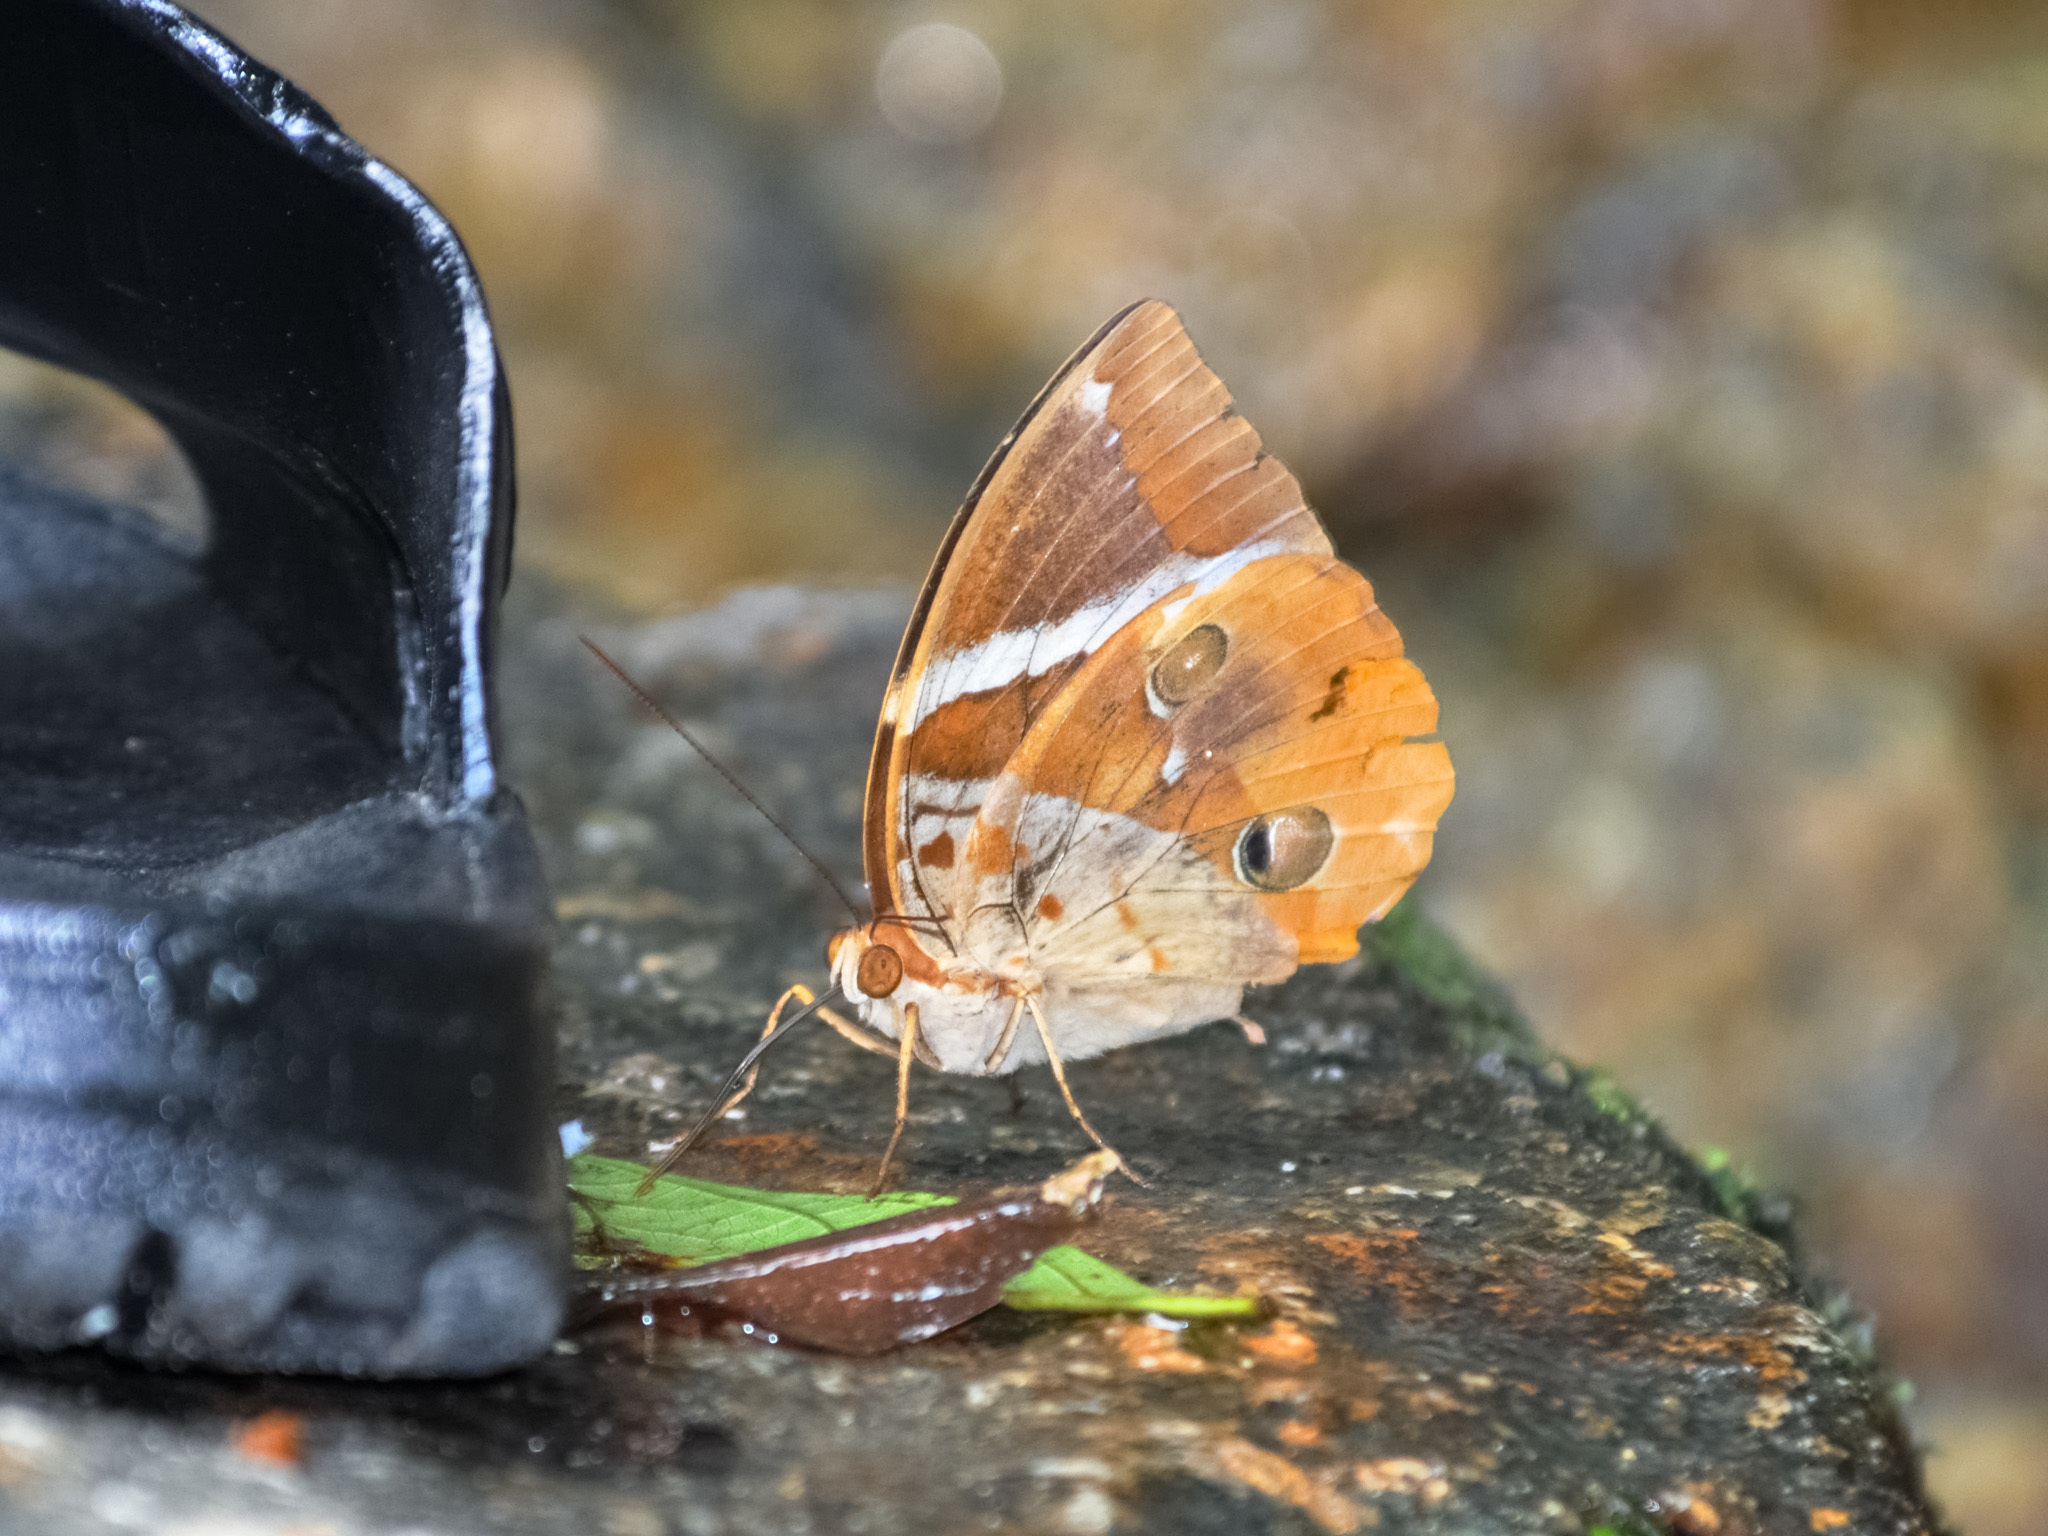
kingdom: Animalia
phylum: Arthropoda
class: Insecta
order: Lepidoptera
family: Nymphalidae
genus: Thauria
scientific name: Thauria aliris
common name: Tufted jungle king
